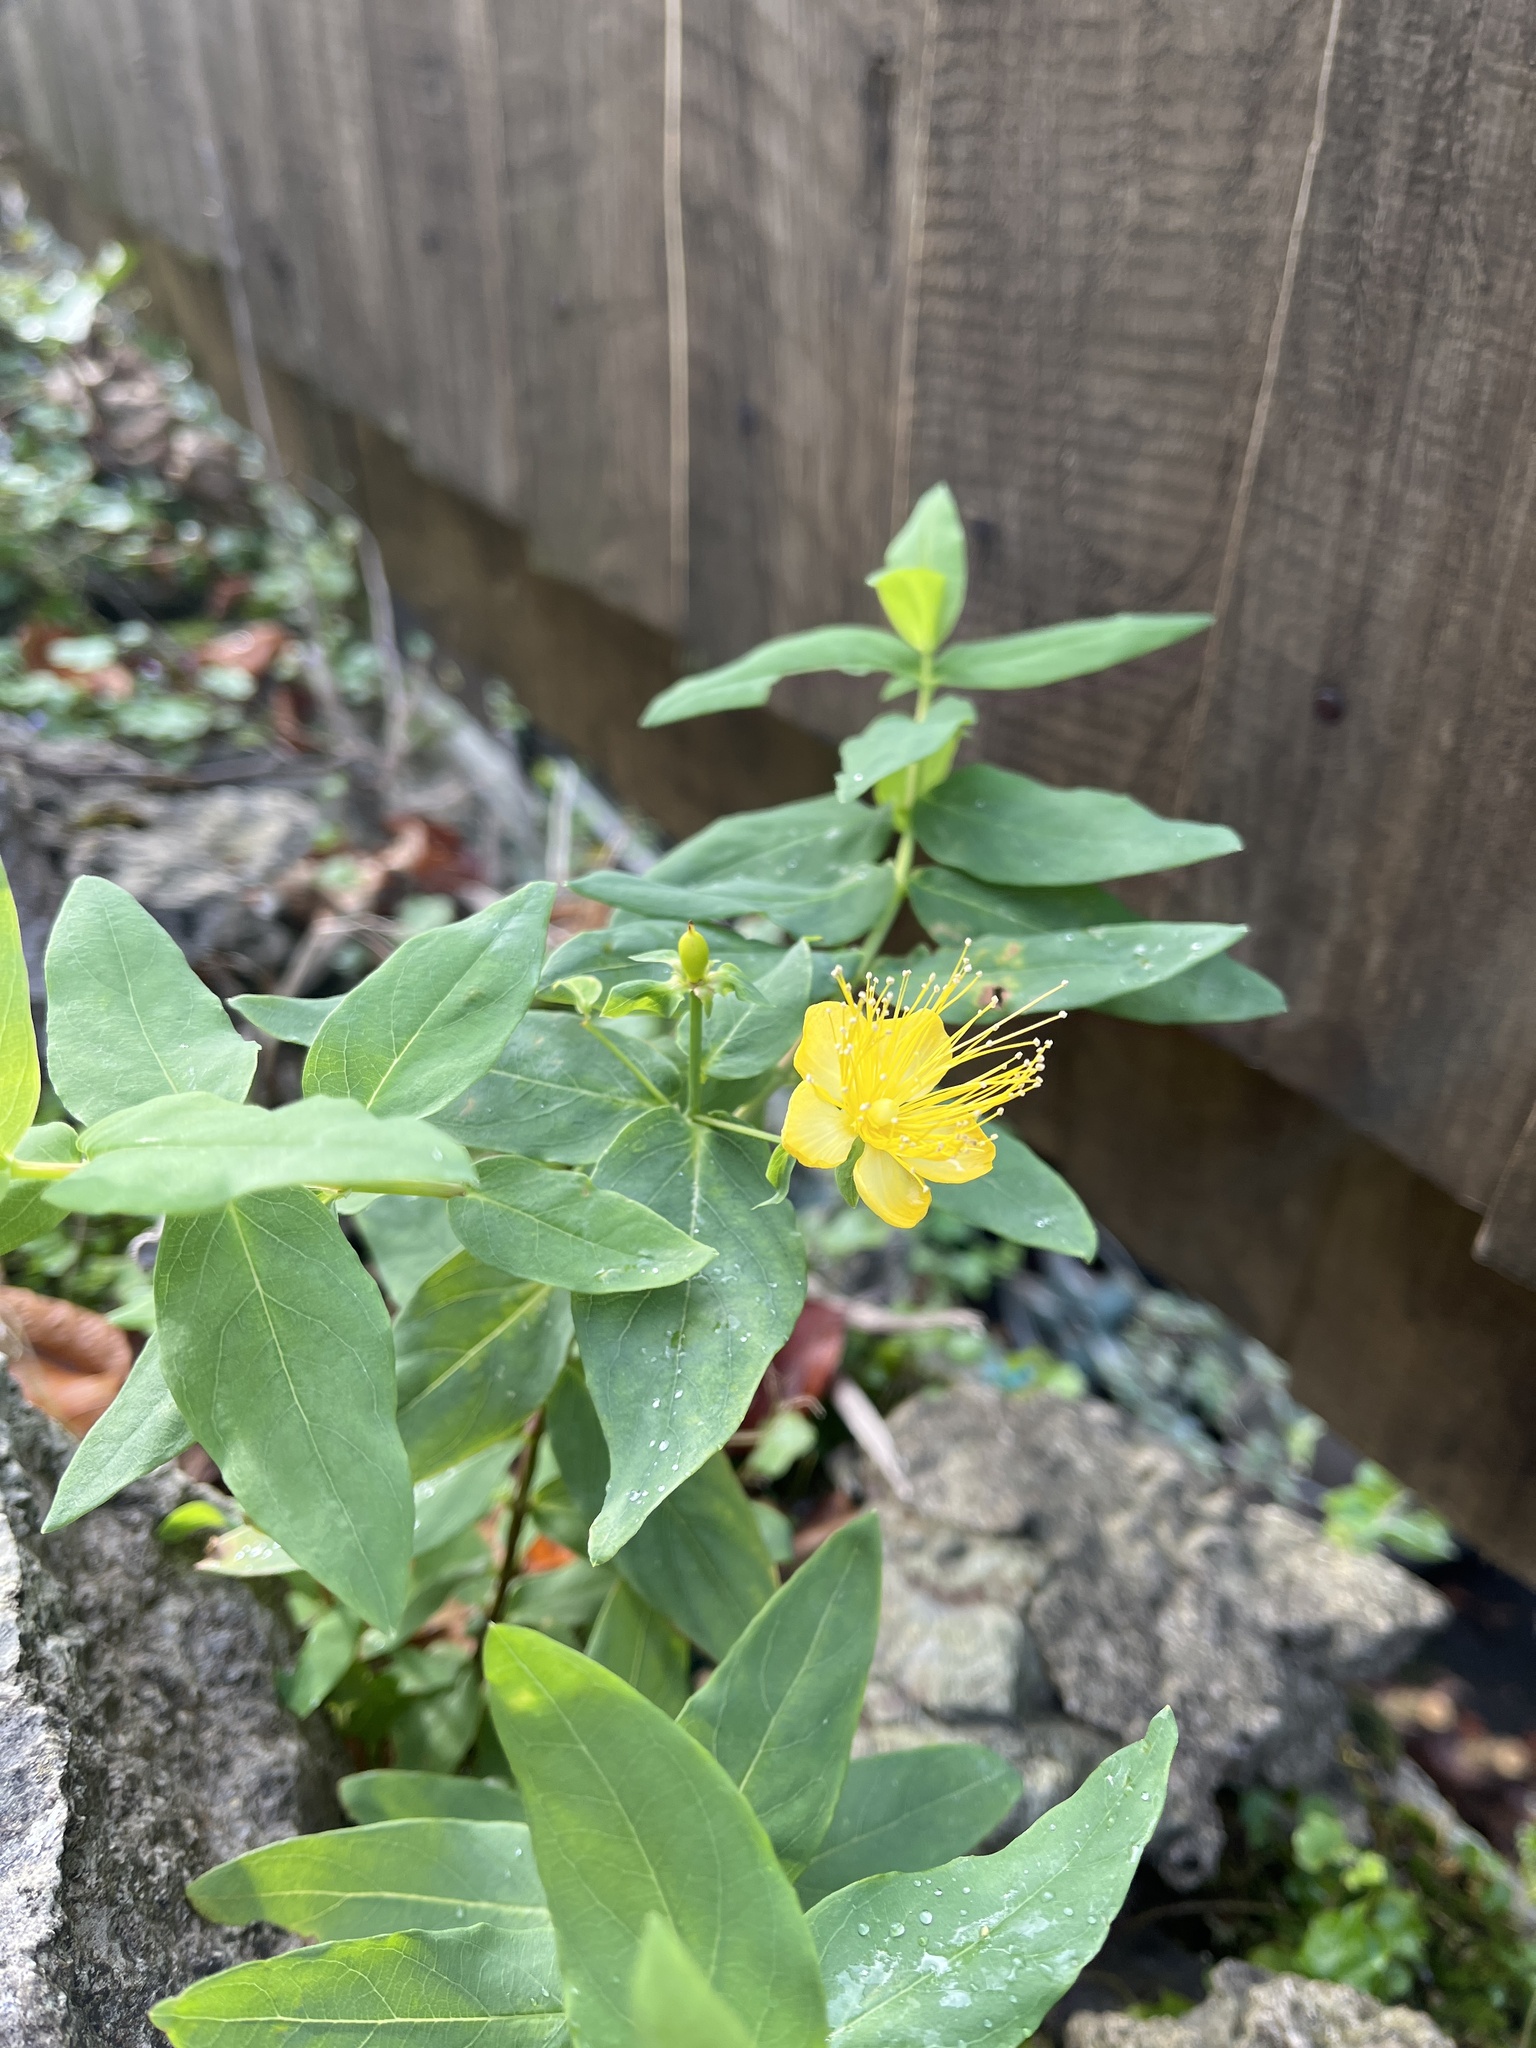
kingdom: Plantae
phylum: Tracheophyta
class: Magnoliopsida
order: Malpighiales
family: Hypericaceae
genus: Hypericum
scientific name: Hypericum inodorum
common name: Tall tutsan
